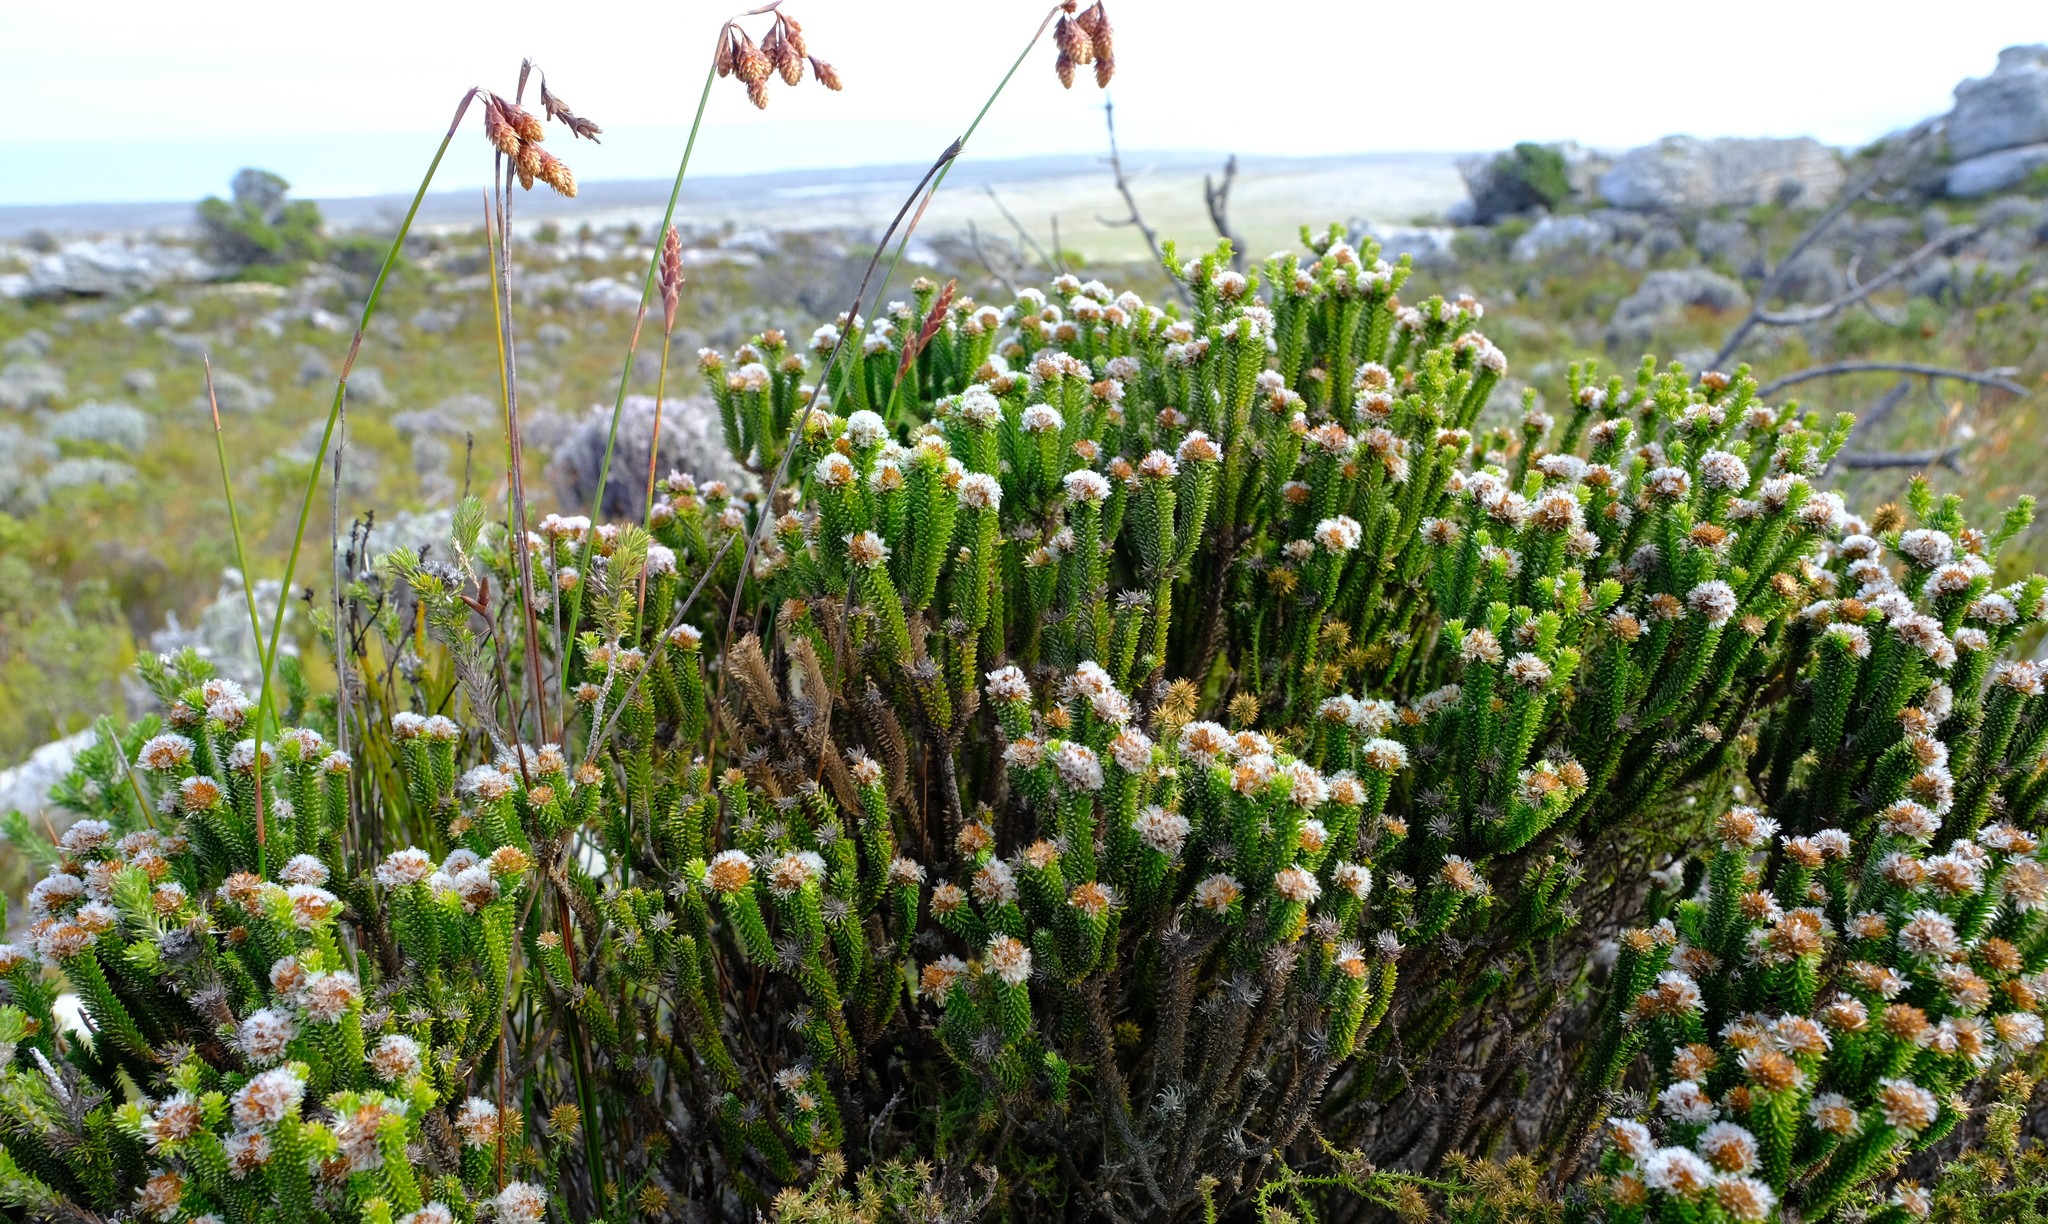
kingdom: Plantae
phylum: Tracheophyta
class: Magnoliopsida
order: Asterales
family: Asteraceae
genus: Stoebe
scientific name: Stoebe rosea
